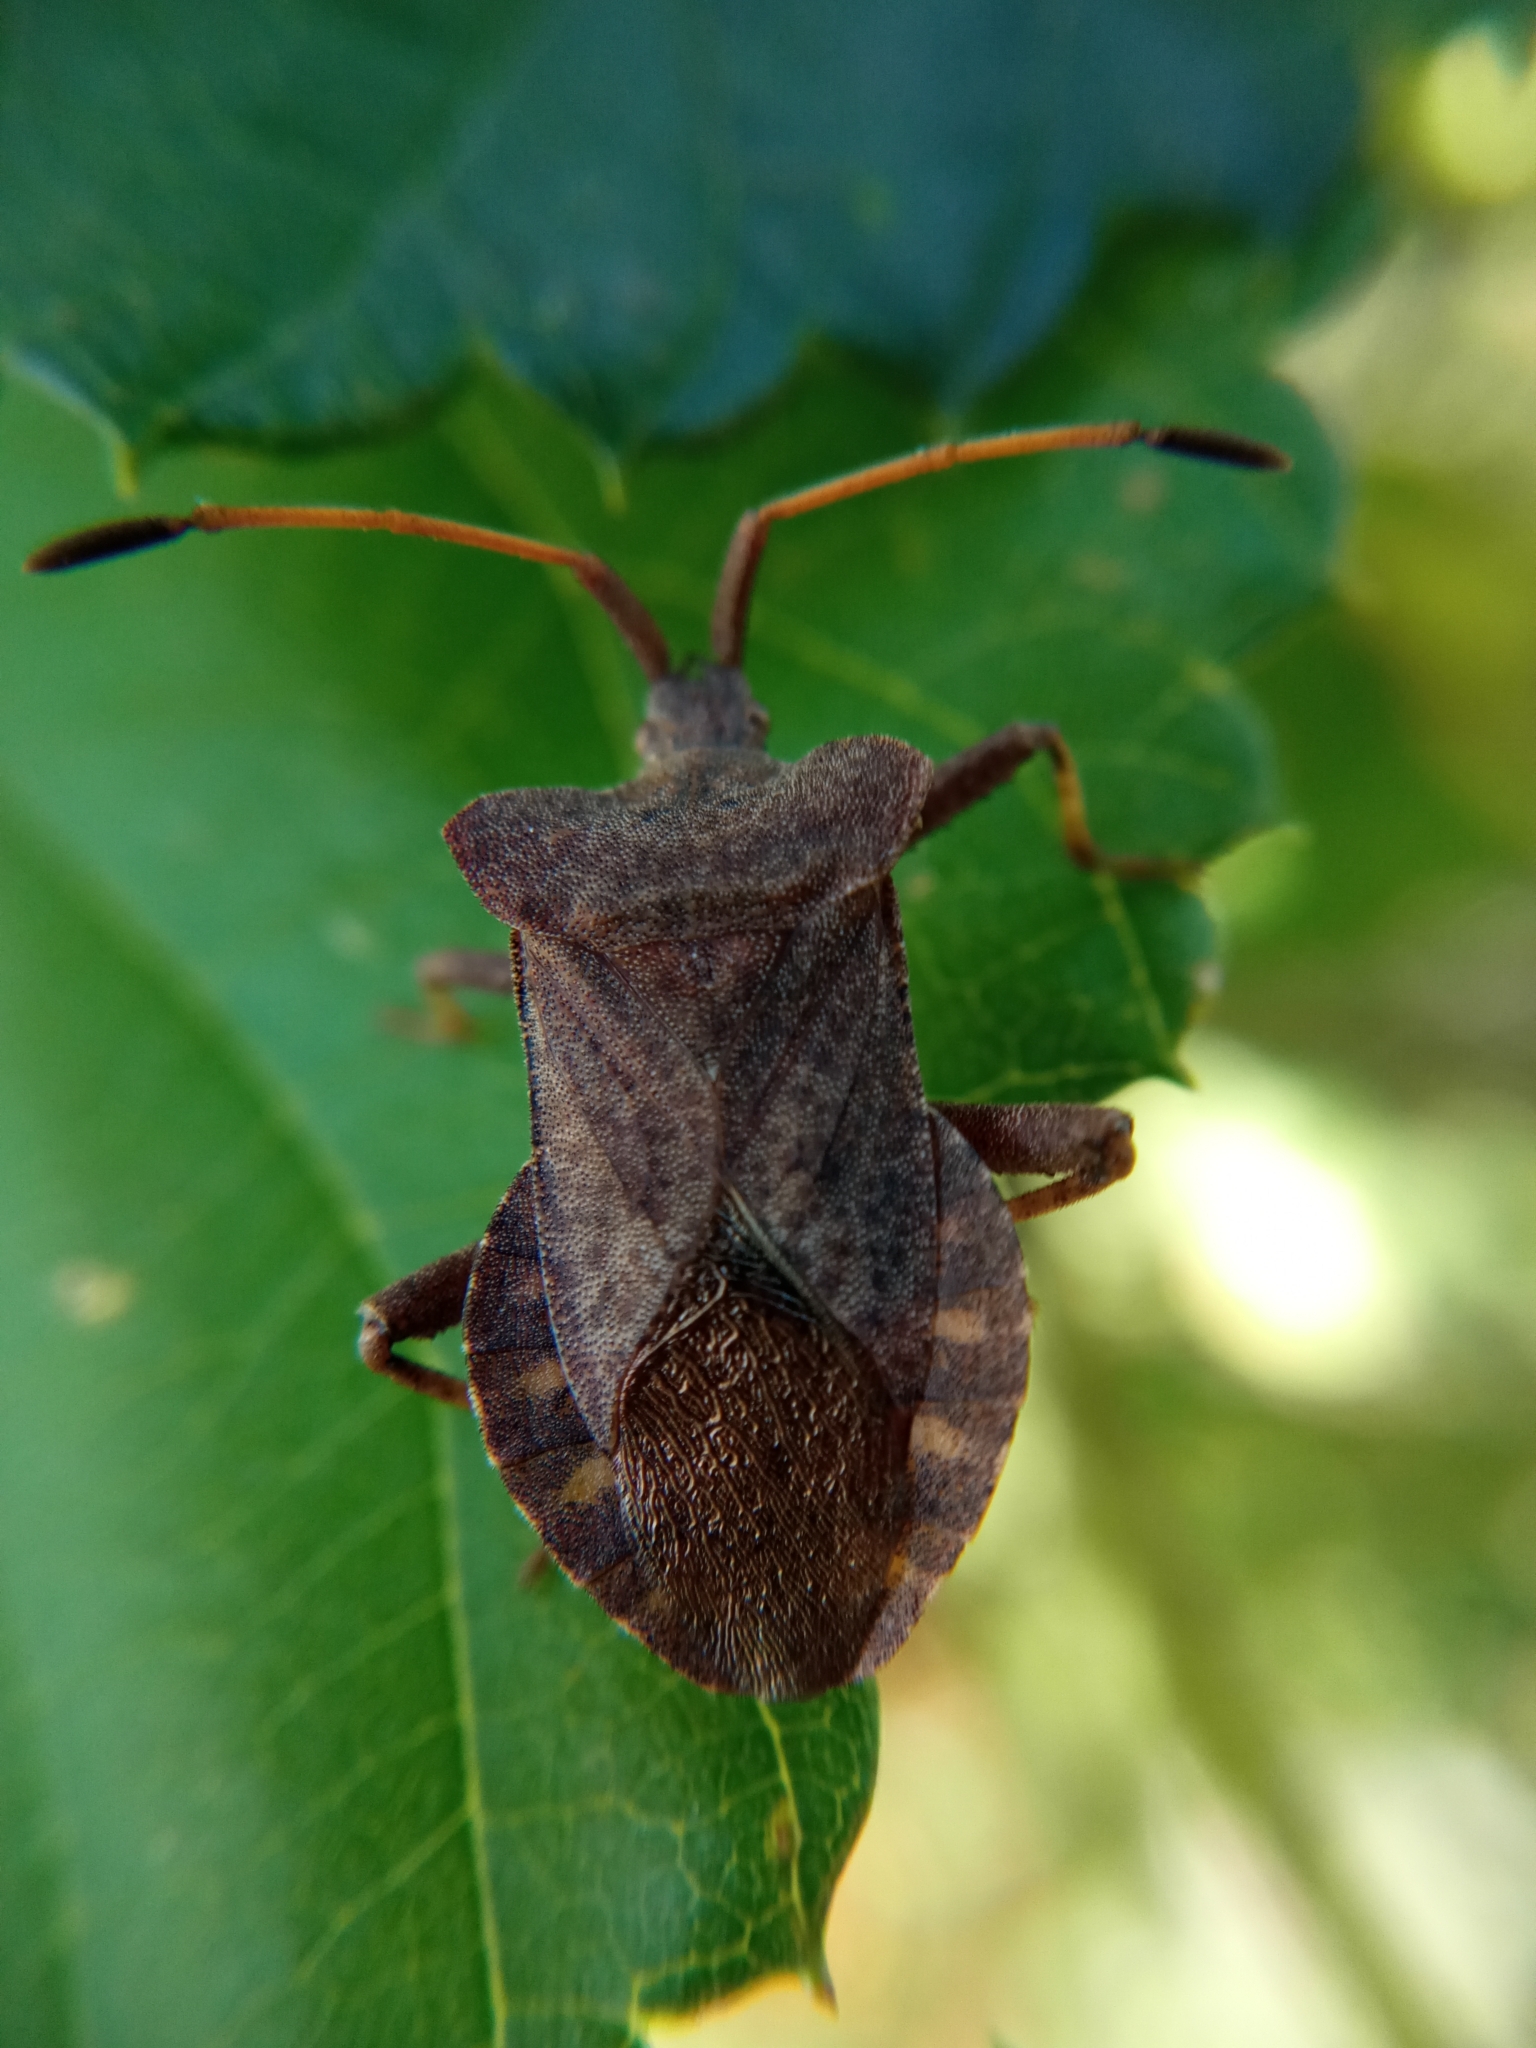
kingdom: Animalia
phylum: Arthropoda
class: Insecta
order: Hemiptera
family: Coreidae
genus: Coreus
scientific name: Coreus marginatus
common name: Dock bug
